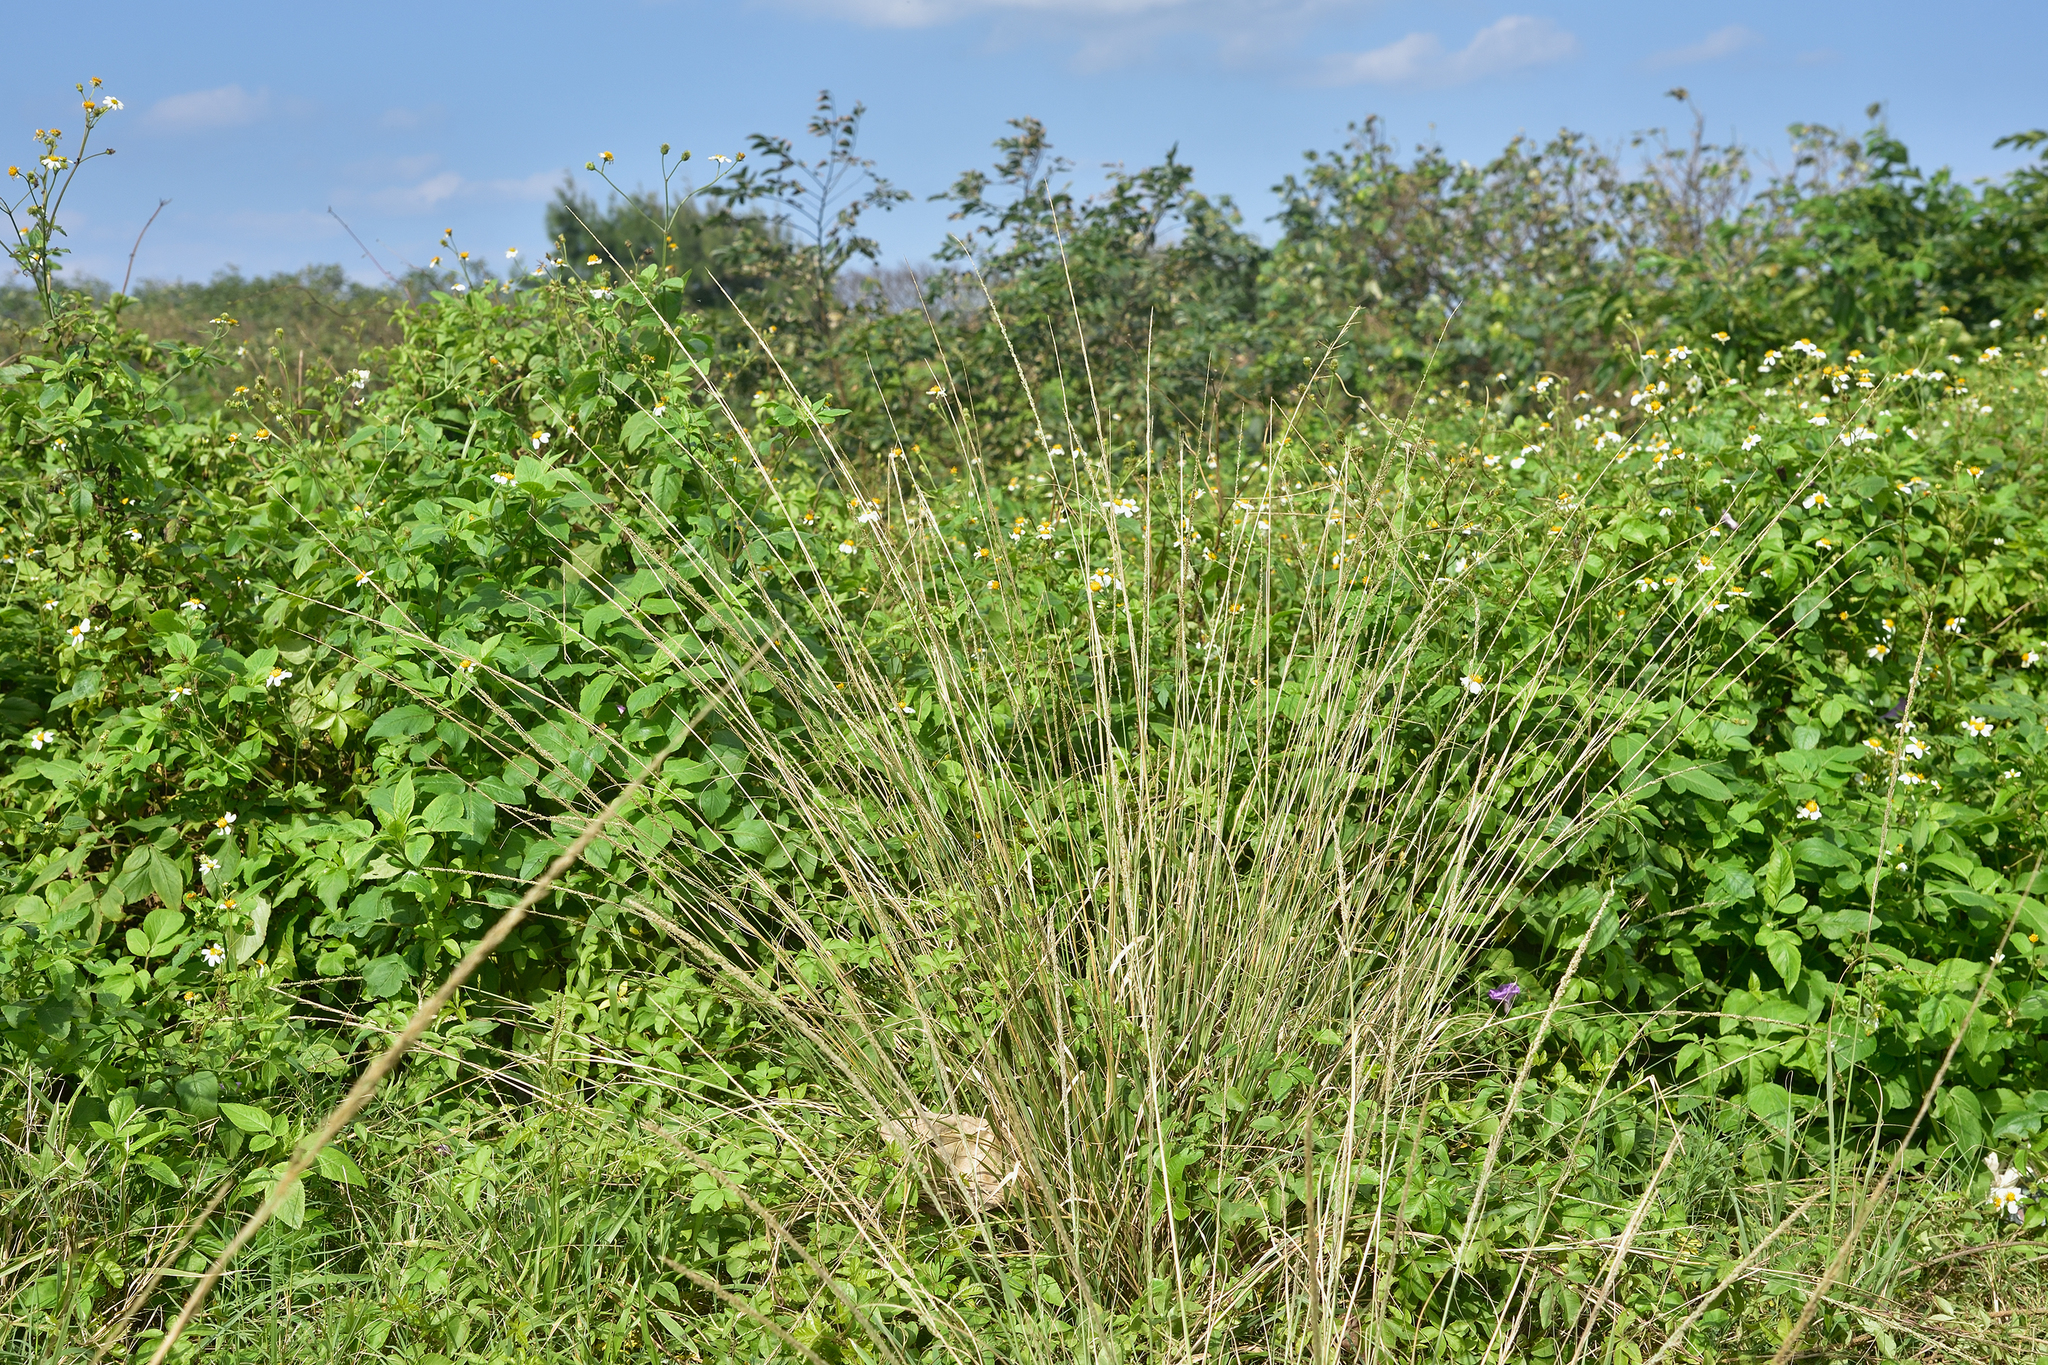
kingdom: Plantae
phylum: Tracheophyta
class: Liliopsida
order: Poales
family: Poaceae
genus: Sporobolus
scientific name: Sporobolus indicus
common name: Smut grass
